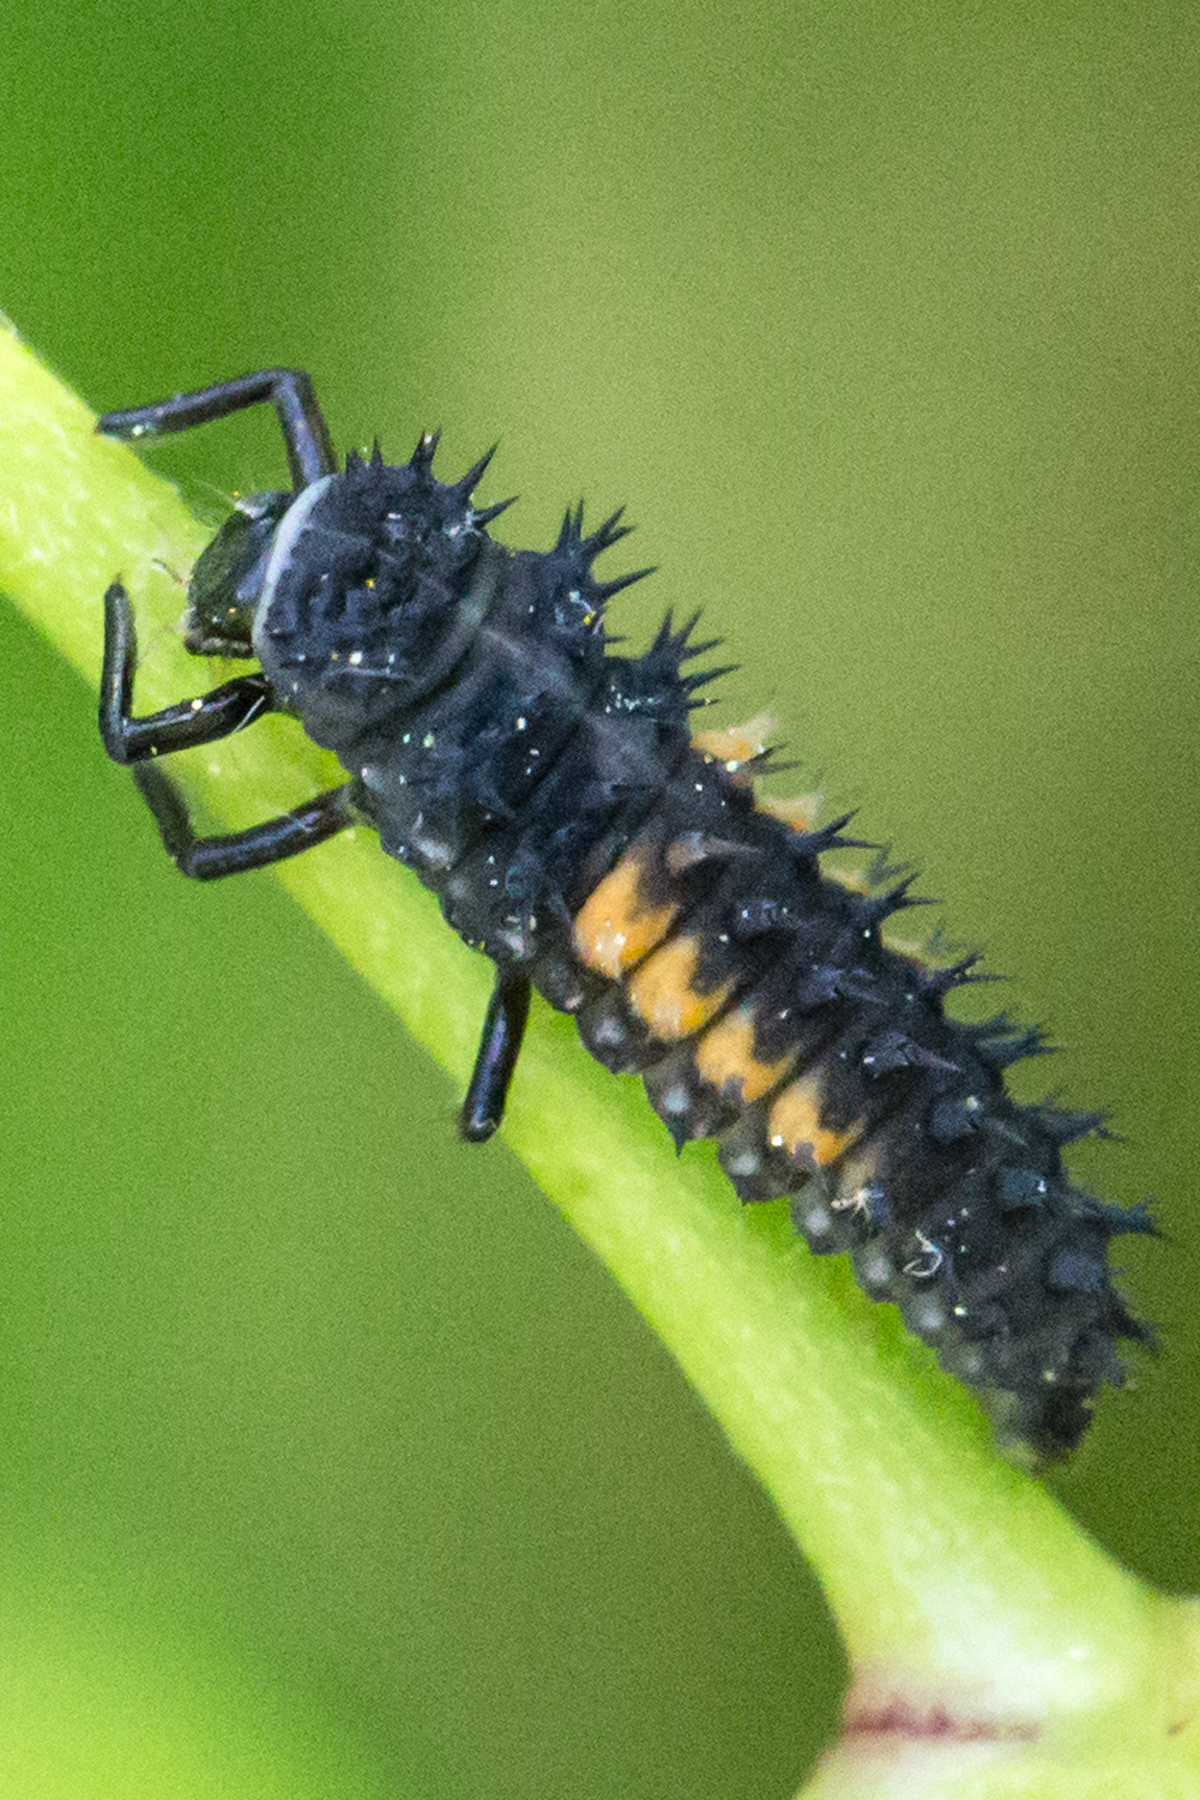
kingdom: Animalia
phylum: Arthropoda
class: Insecta
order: Coleoptera
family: Coccinellidae
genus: Harmonia
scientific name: Harmonia axyridis
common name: Harlequin ladybird
